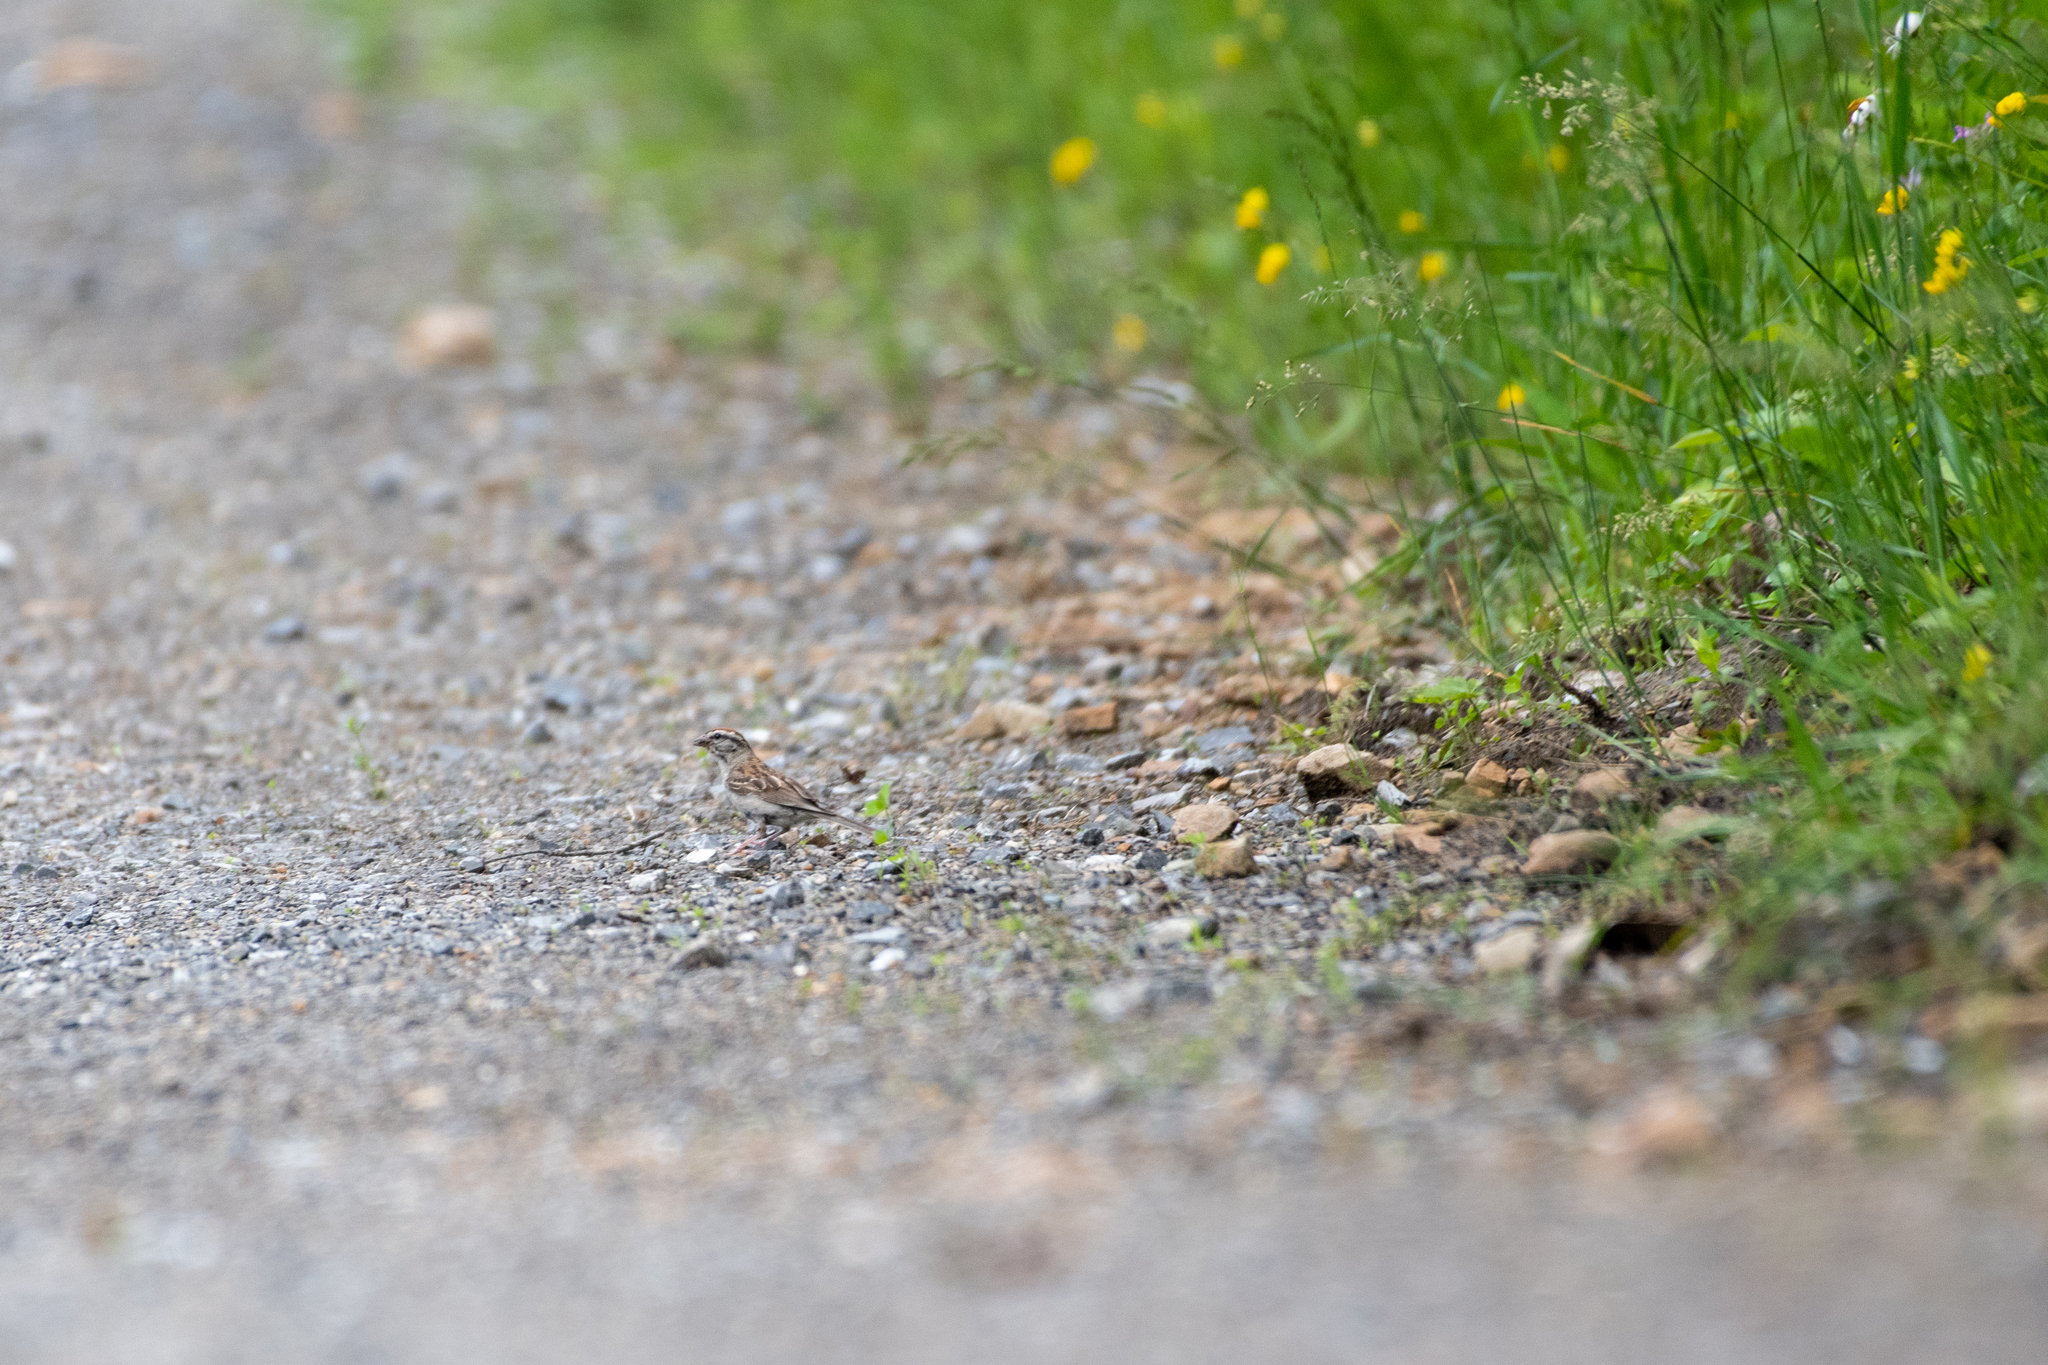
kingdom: Animalia
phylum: Chordata
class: Aves
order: Passeriformes
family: Passerellidae
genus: Spizella
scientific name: Spizella passerina
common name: Chipping sparrow
